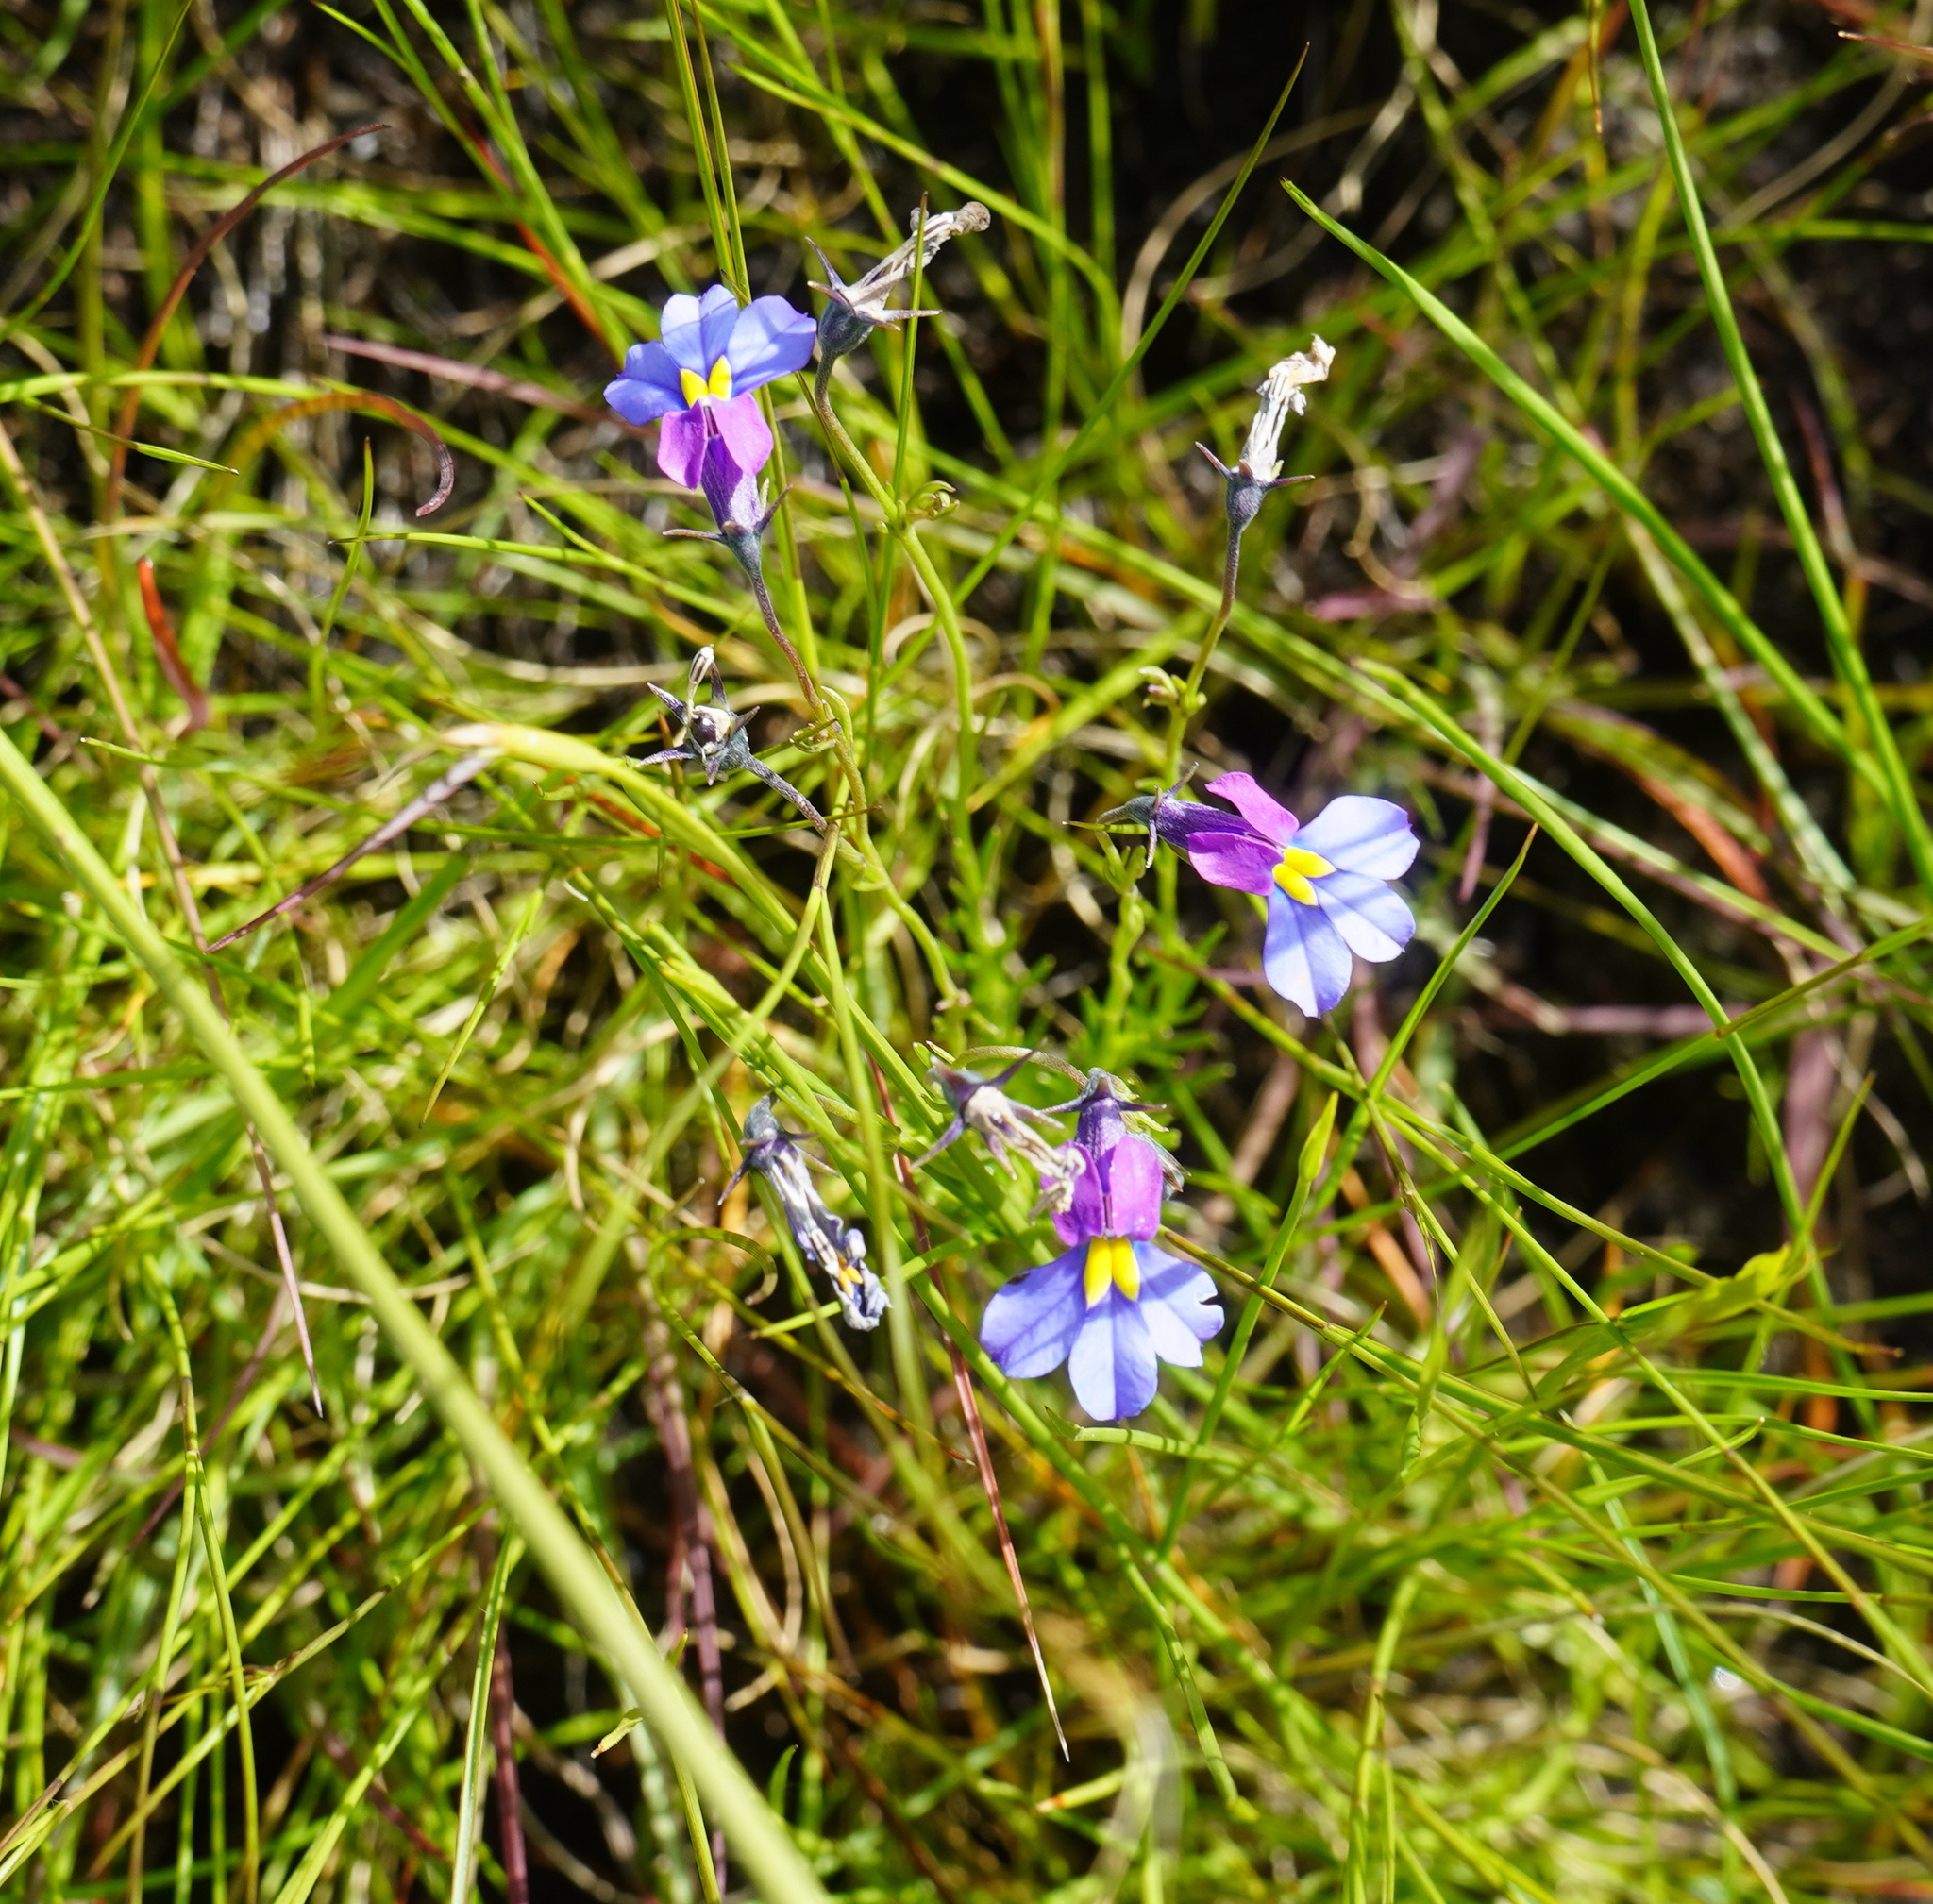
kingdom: Plantae
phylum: Tracheophyta
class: Magnoliopsida
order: Asterales
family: Campanulaceae
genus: Monopsis
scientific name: Monopsis decipiens
